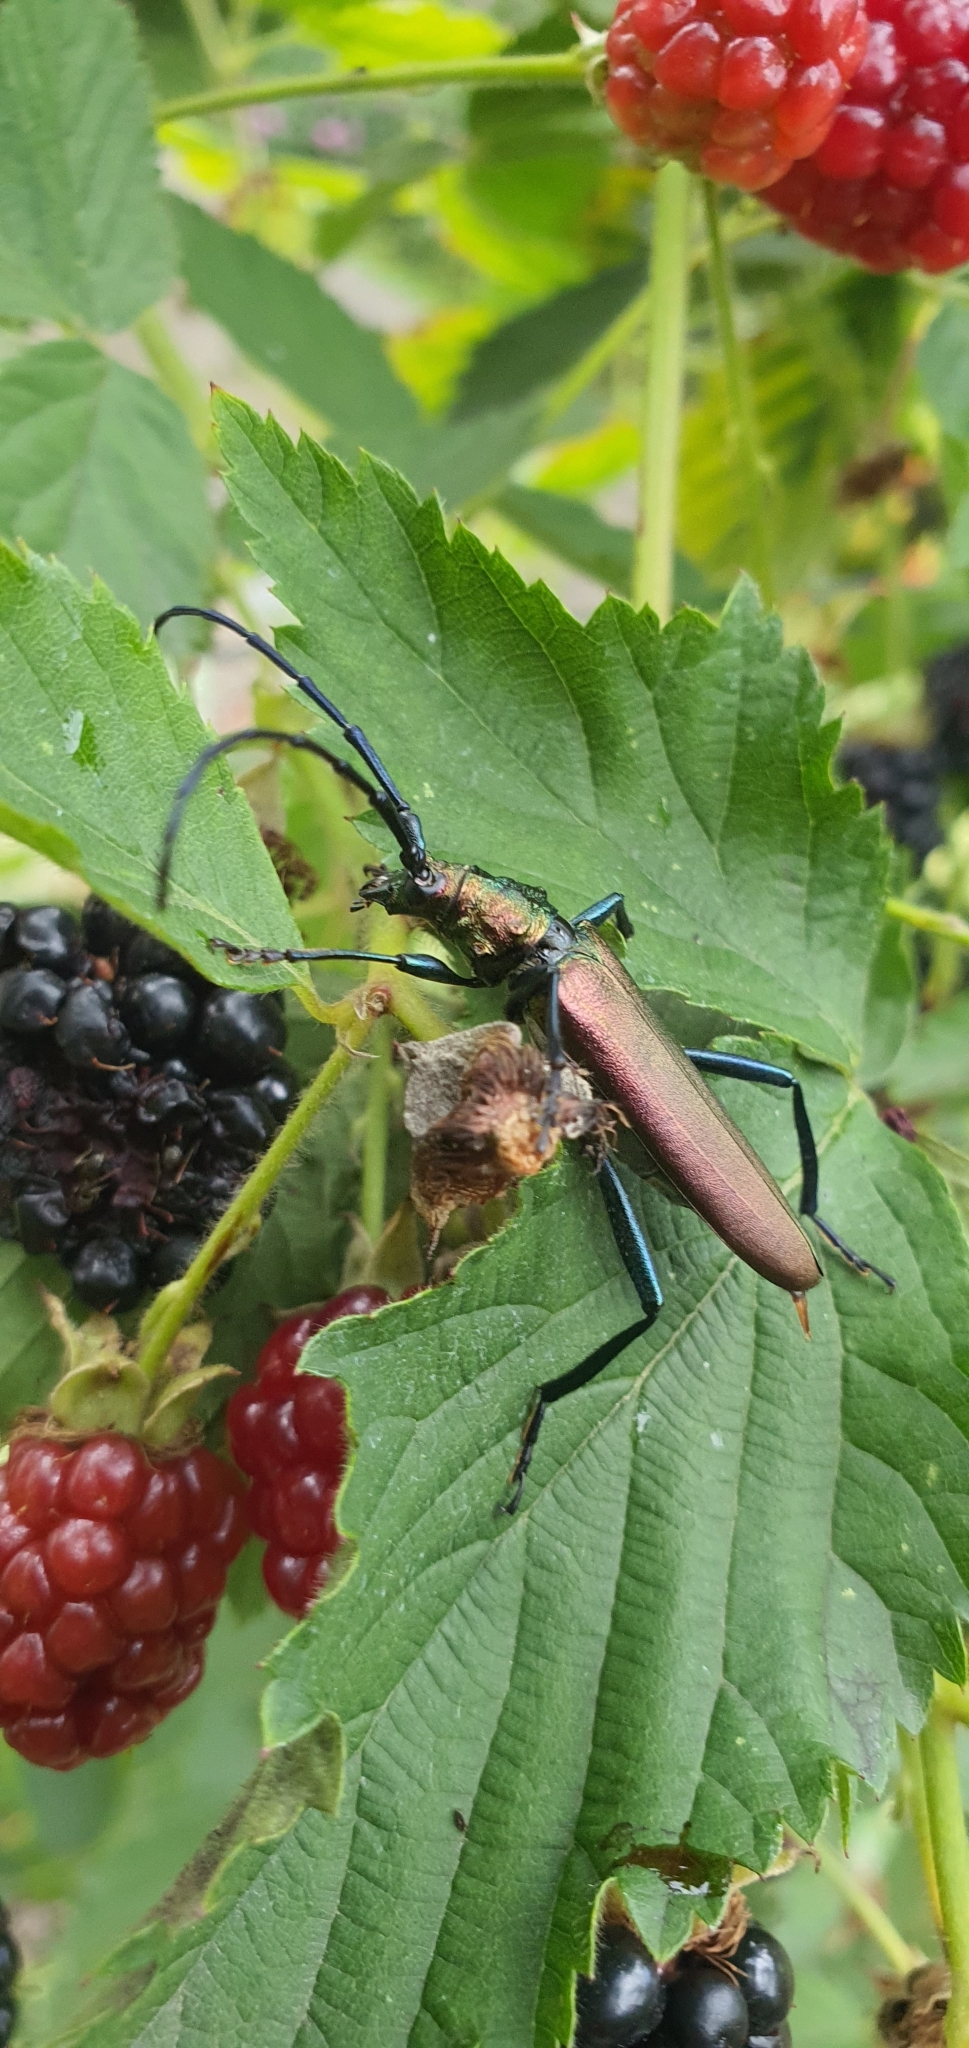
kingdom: Animalia
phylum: Arthropoda
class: Insecta
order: Coleoptera
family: Cerambycidae
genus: Aromia
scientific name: Aromia moschata
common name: Musk beetle
